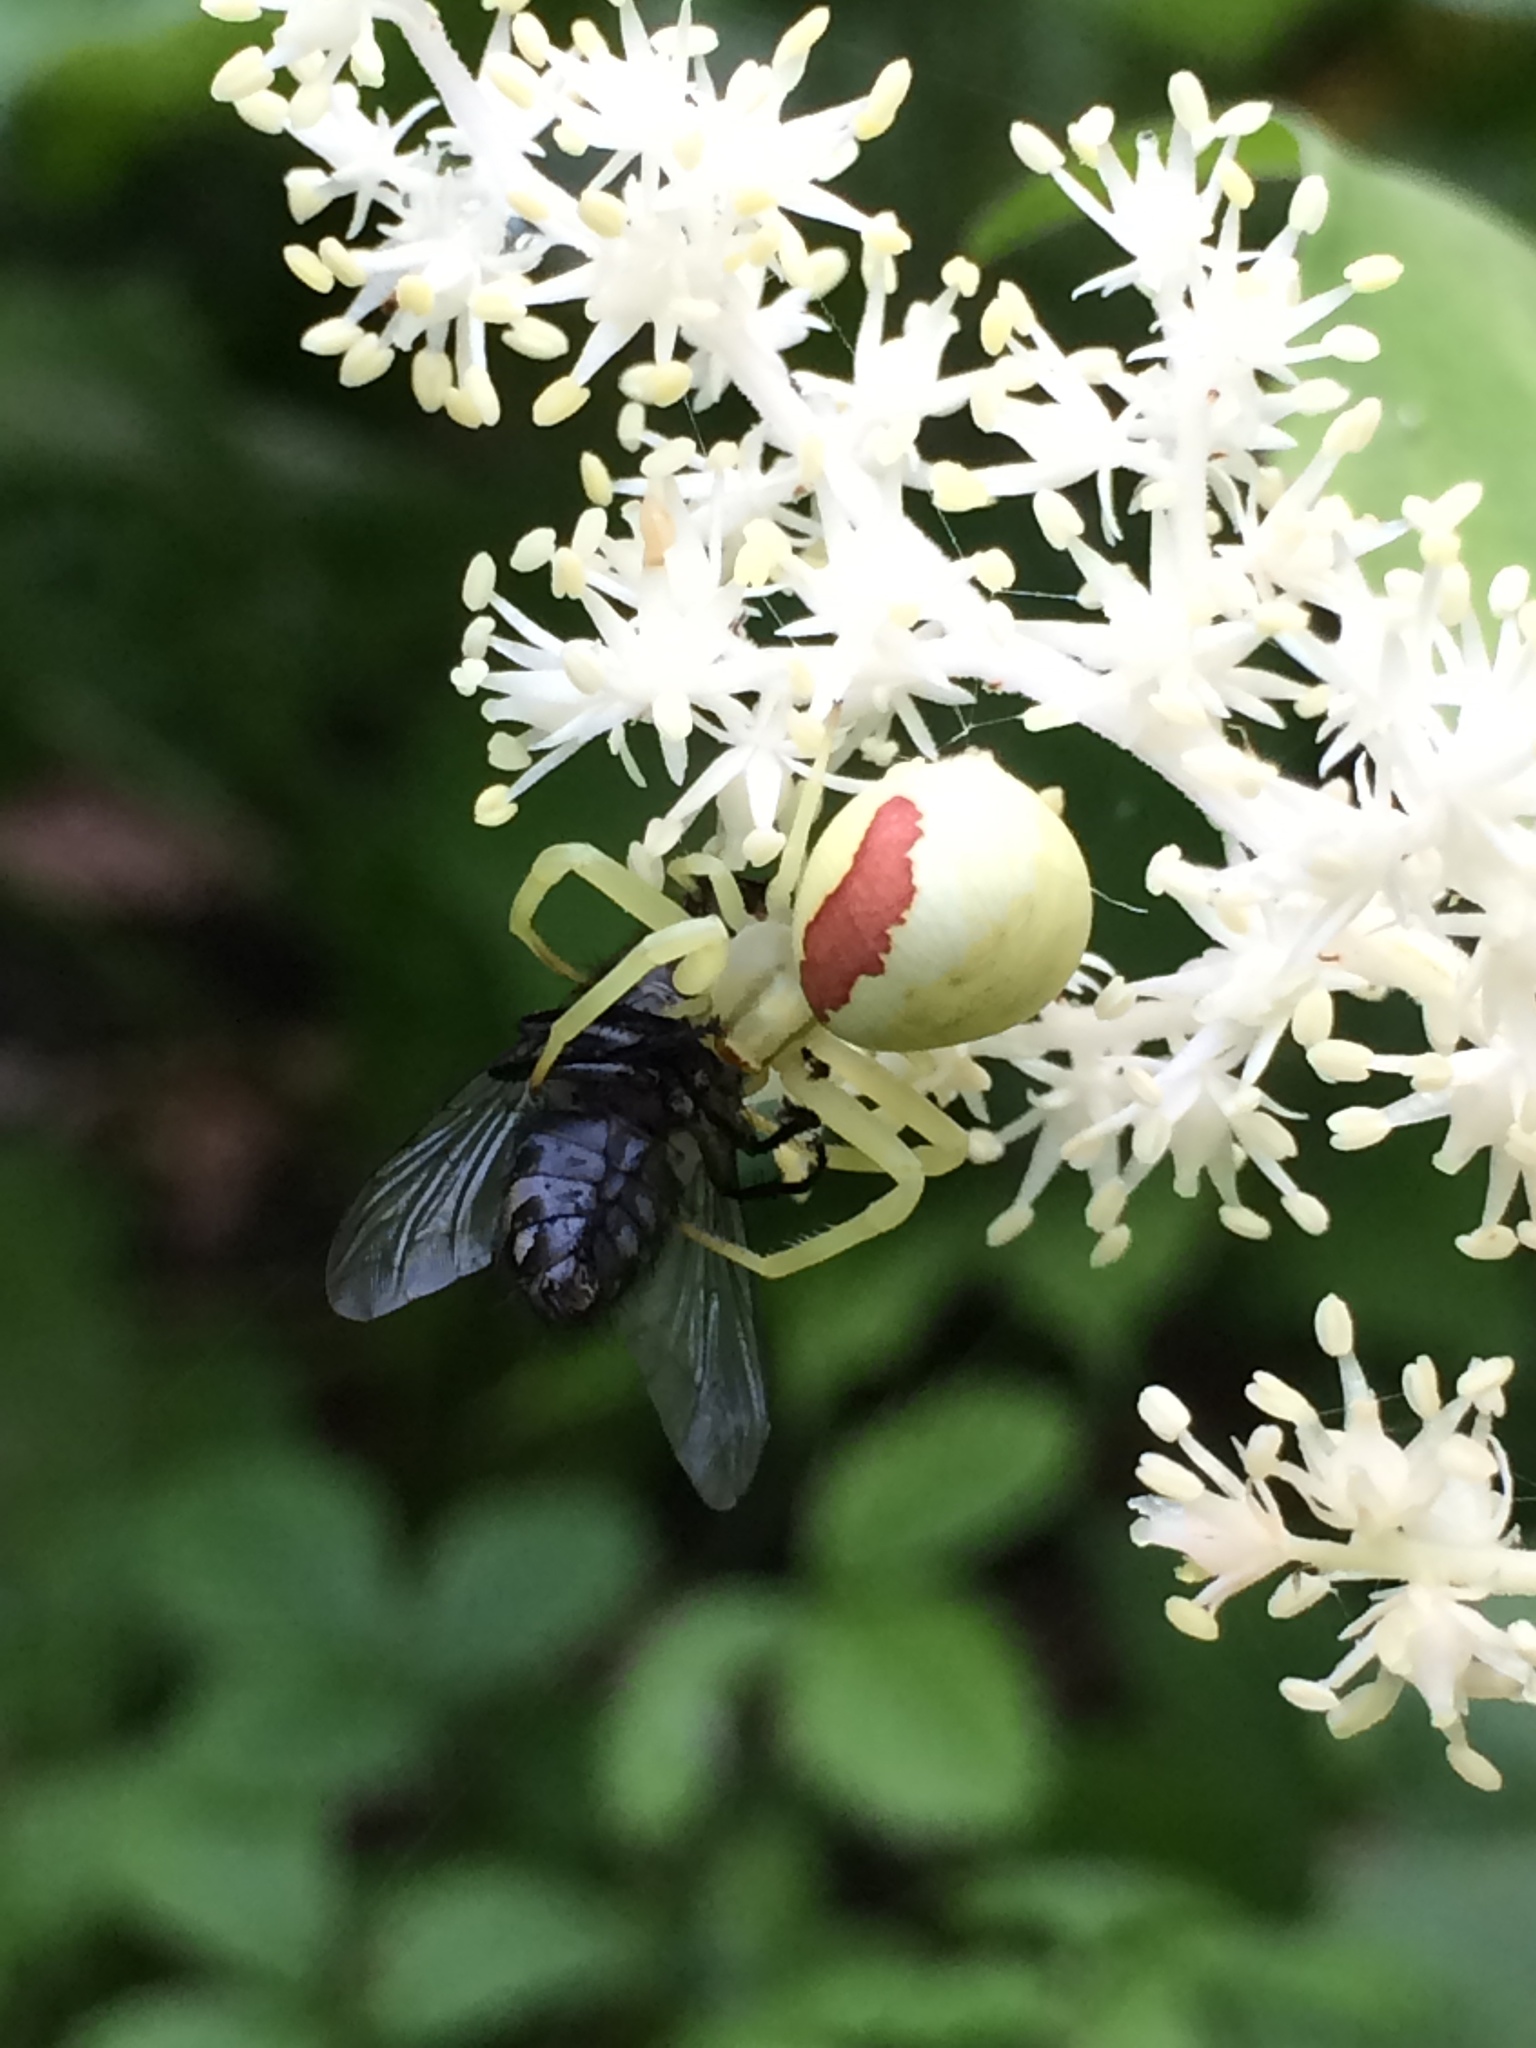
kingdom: Animalia
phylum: Arthropoda
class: Arachnida
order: Araneae
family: Thomisidae
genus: Misumena
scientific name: Misumena vatia
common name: Goldenrod crab spider
